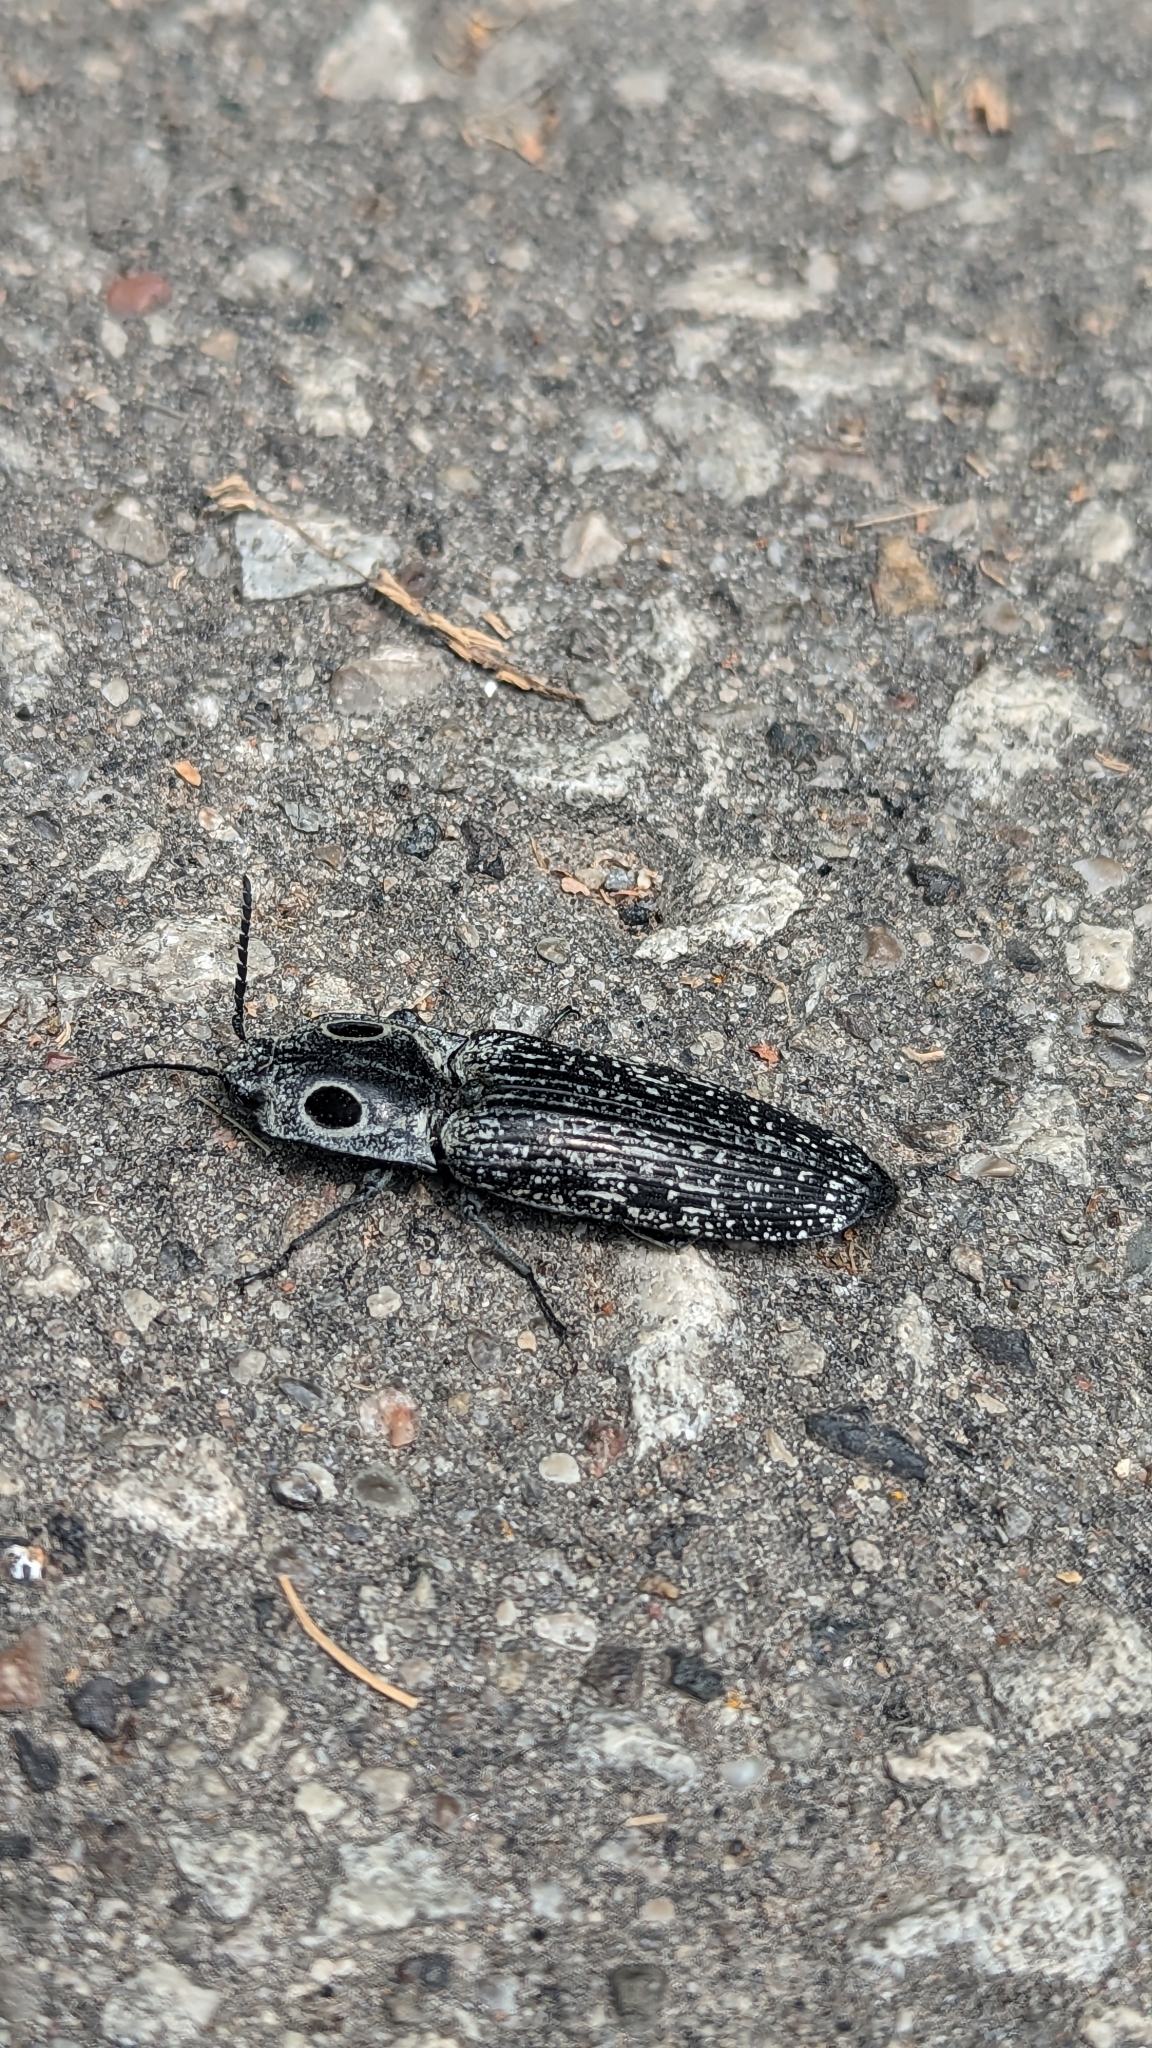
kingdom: Animalia
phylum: Arthropoda
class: Insecta
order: Coleoptera
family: Elateridae
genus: Alaus
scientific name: Alaus oculatus
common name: Eastern eyed click beetle
